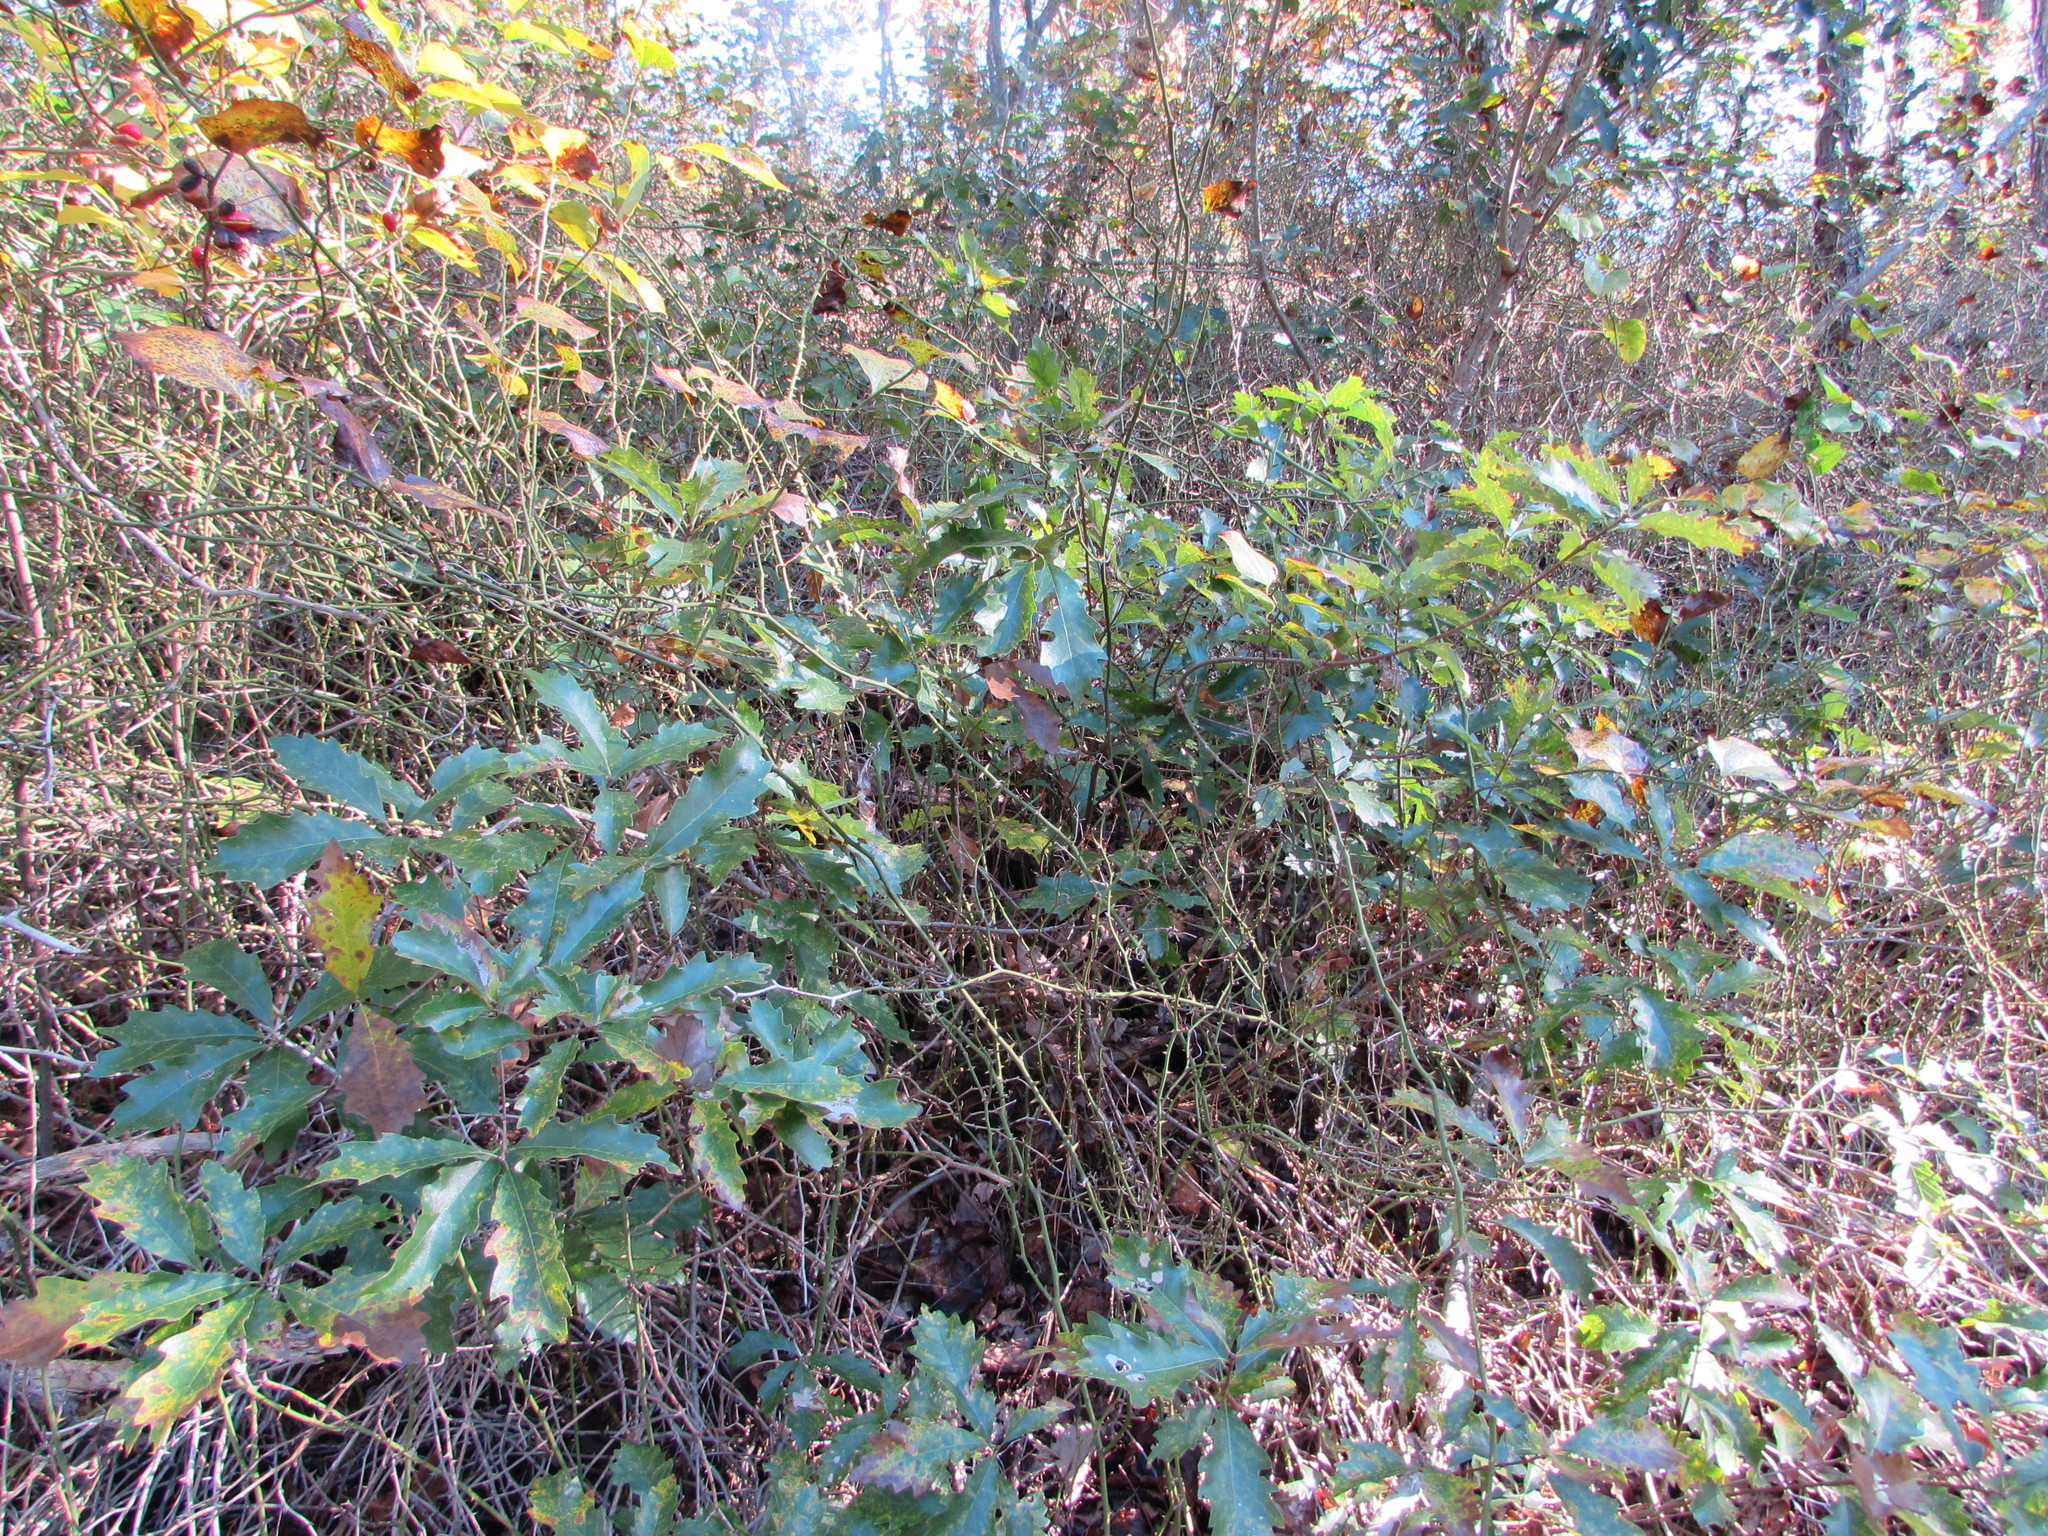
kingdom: Plantae
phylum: Tracheophyta
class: Magnoliopsida
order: Fagales
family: Fagaceae
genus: Quercus
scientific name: Quercus prinoides
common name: Dwarf chinkapin oak
